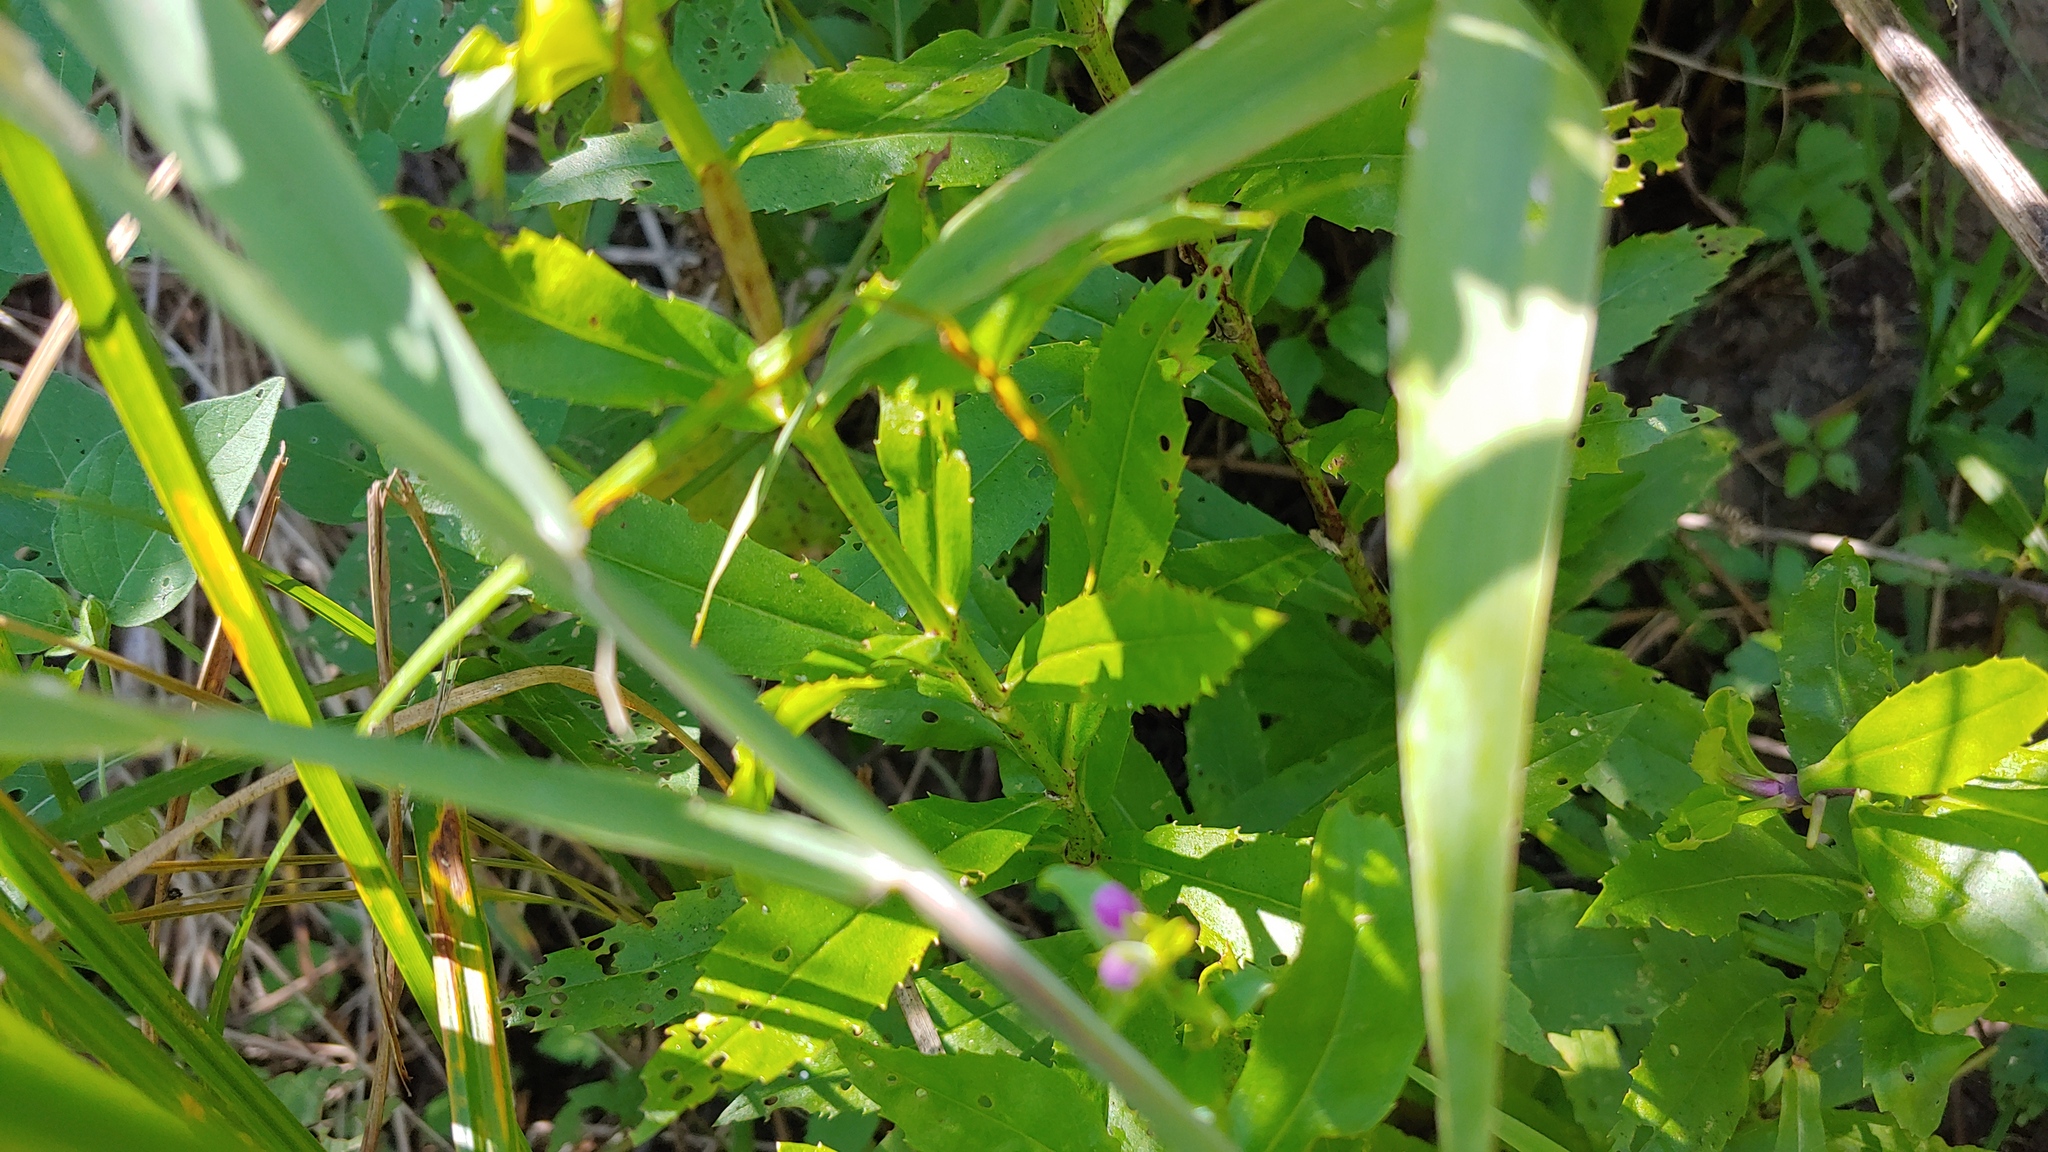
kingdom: Plantae
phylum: Tracheophyta
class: Magnoliopsida
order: Lamiales
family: Lamiaceae
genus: Physostegia
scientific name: Physostegia virginiana
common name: Obedient-plant
